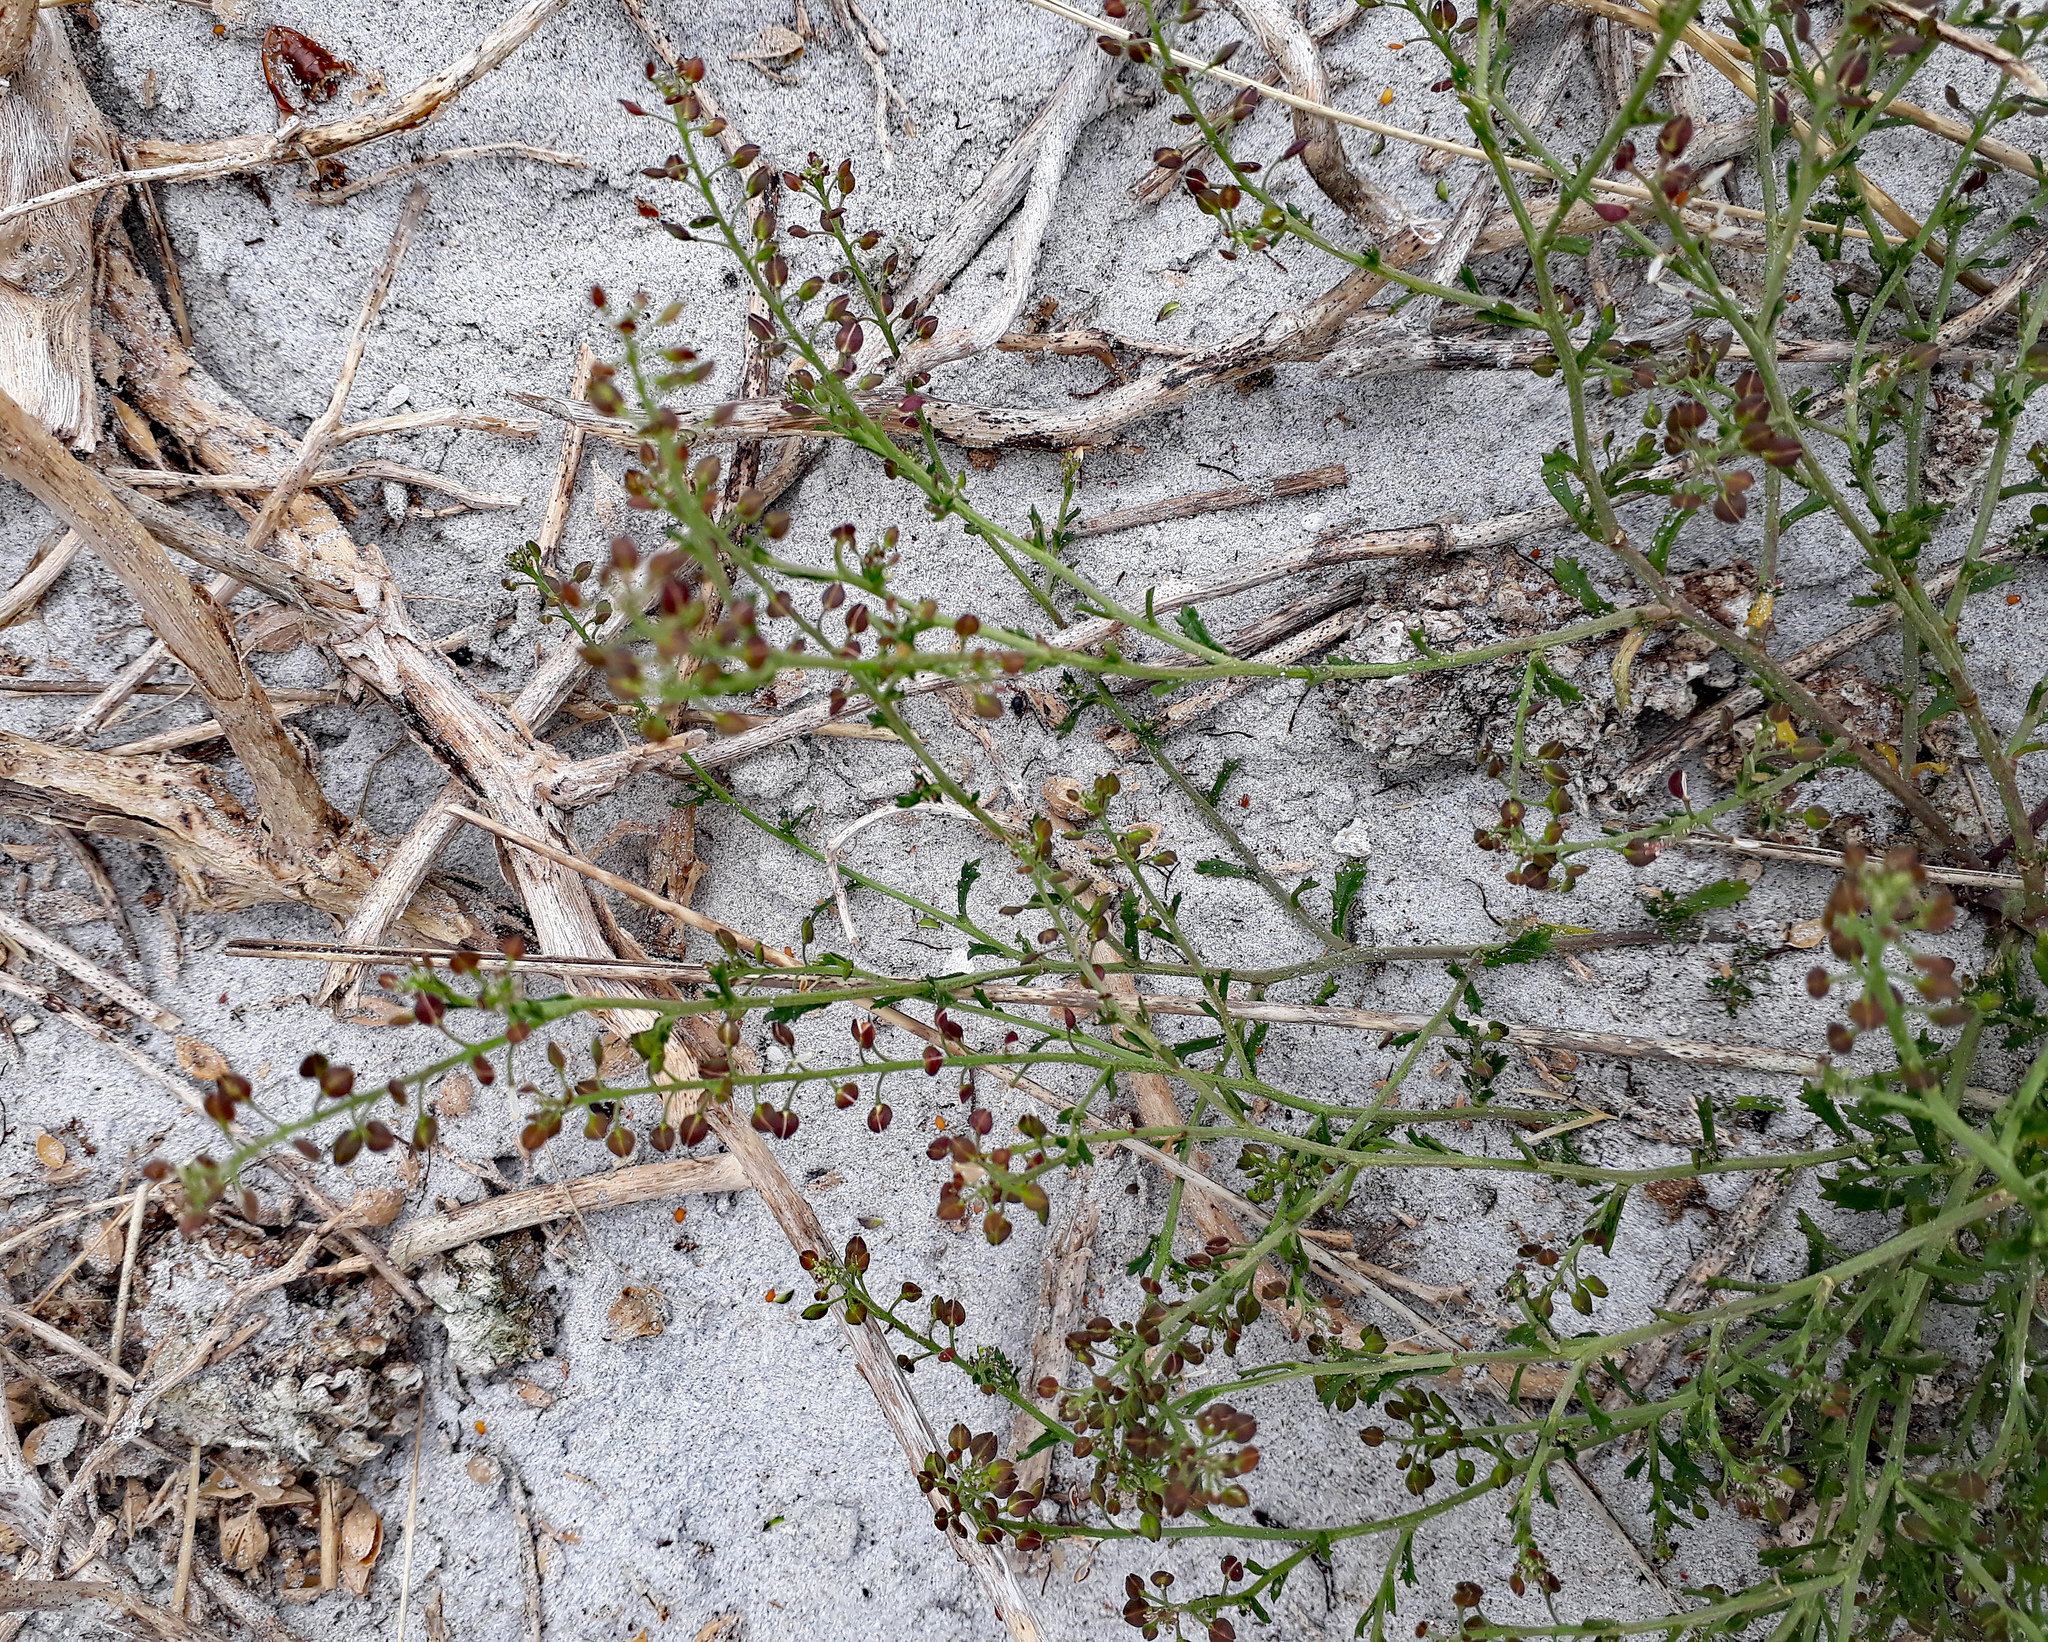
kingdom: Plantae
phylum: Tracheophyta
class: Magnoliopsida
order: Brassicales
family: Brassicaceae
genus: Lepidium
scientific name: Lepidium desvauxii
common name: Bushy pepperwort
